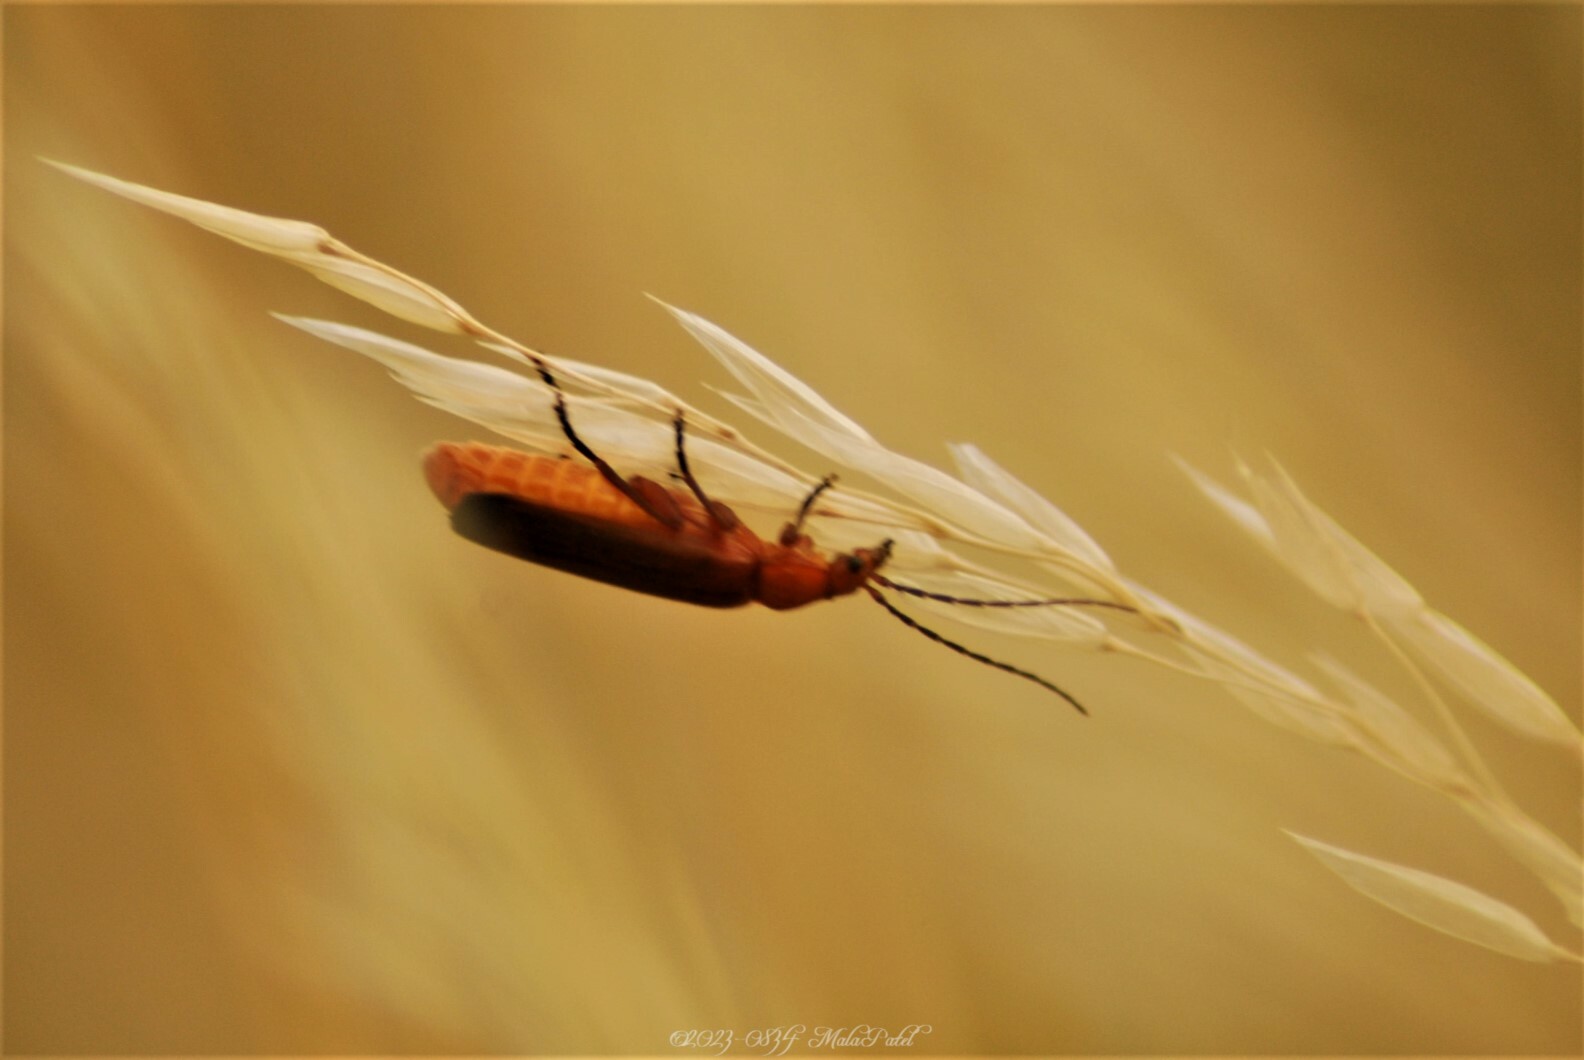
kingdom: Animalia
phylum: Arthropoda
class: Insecta
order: Coleoptera
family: Cantharidae
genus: Rhagonycha
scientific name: Rhagonycha fulva
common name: Common red soldier beetle
